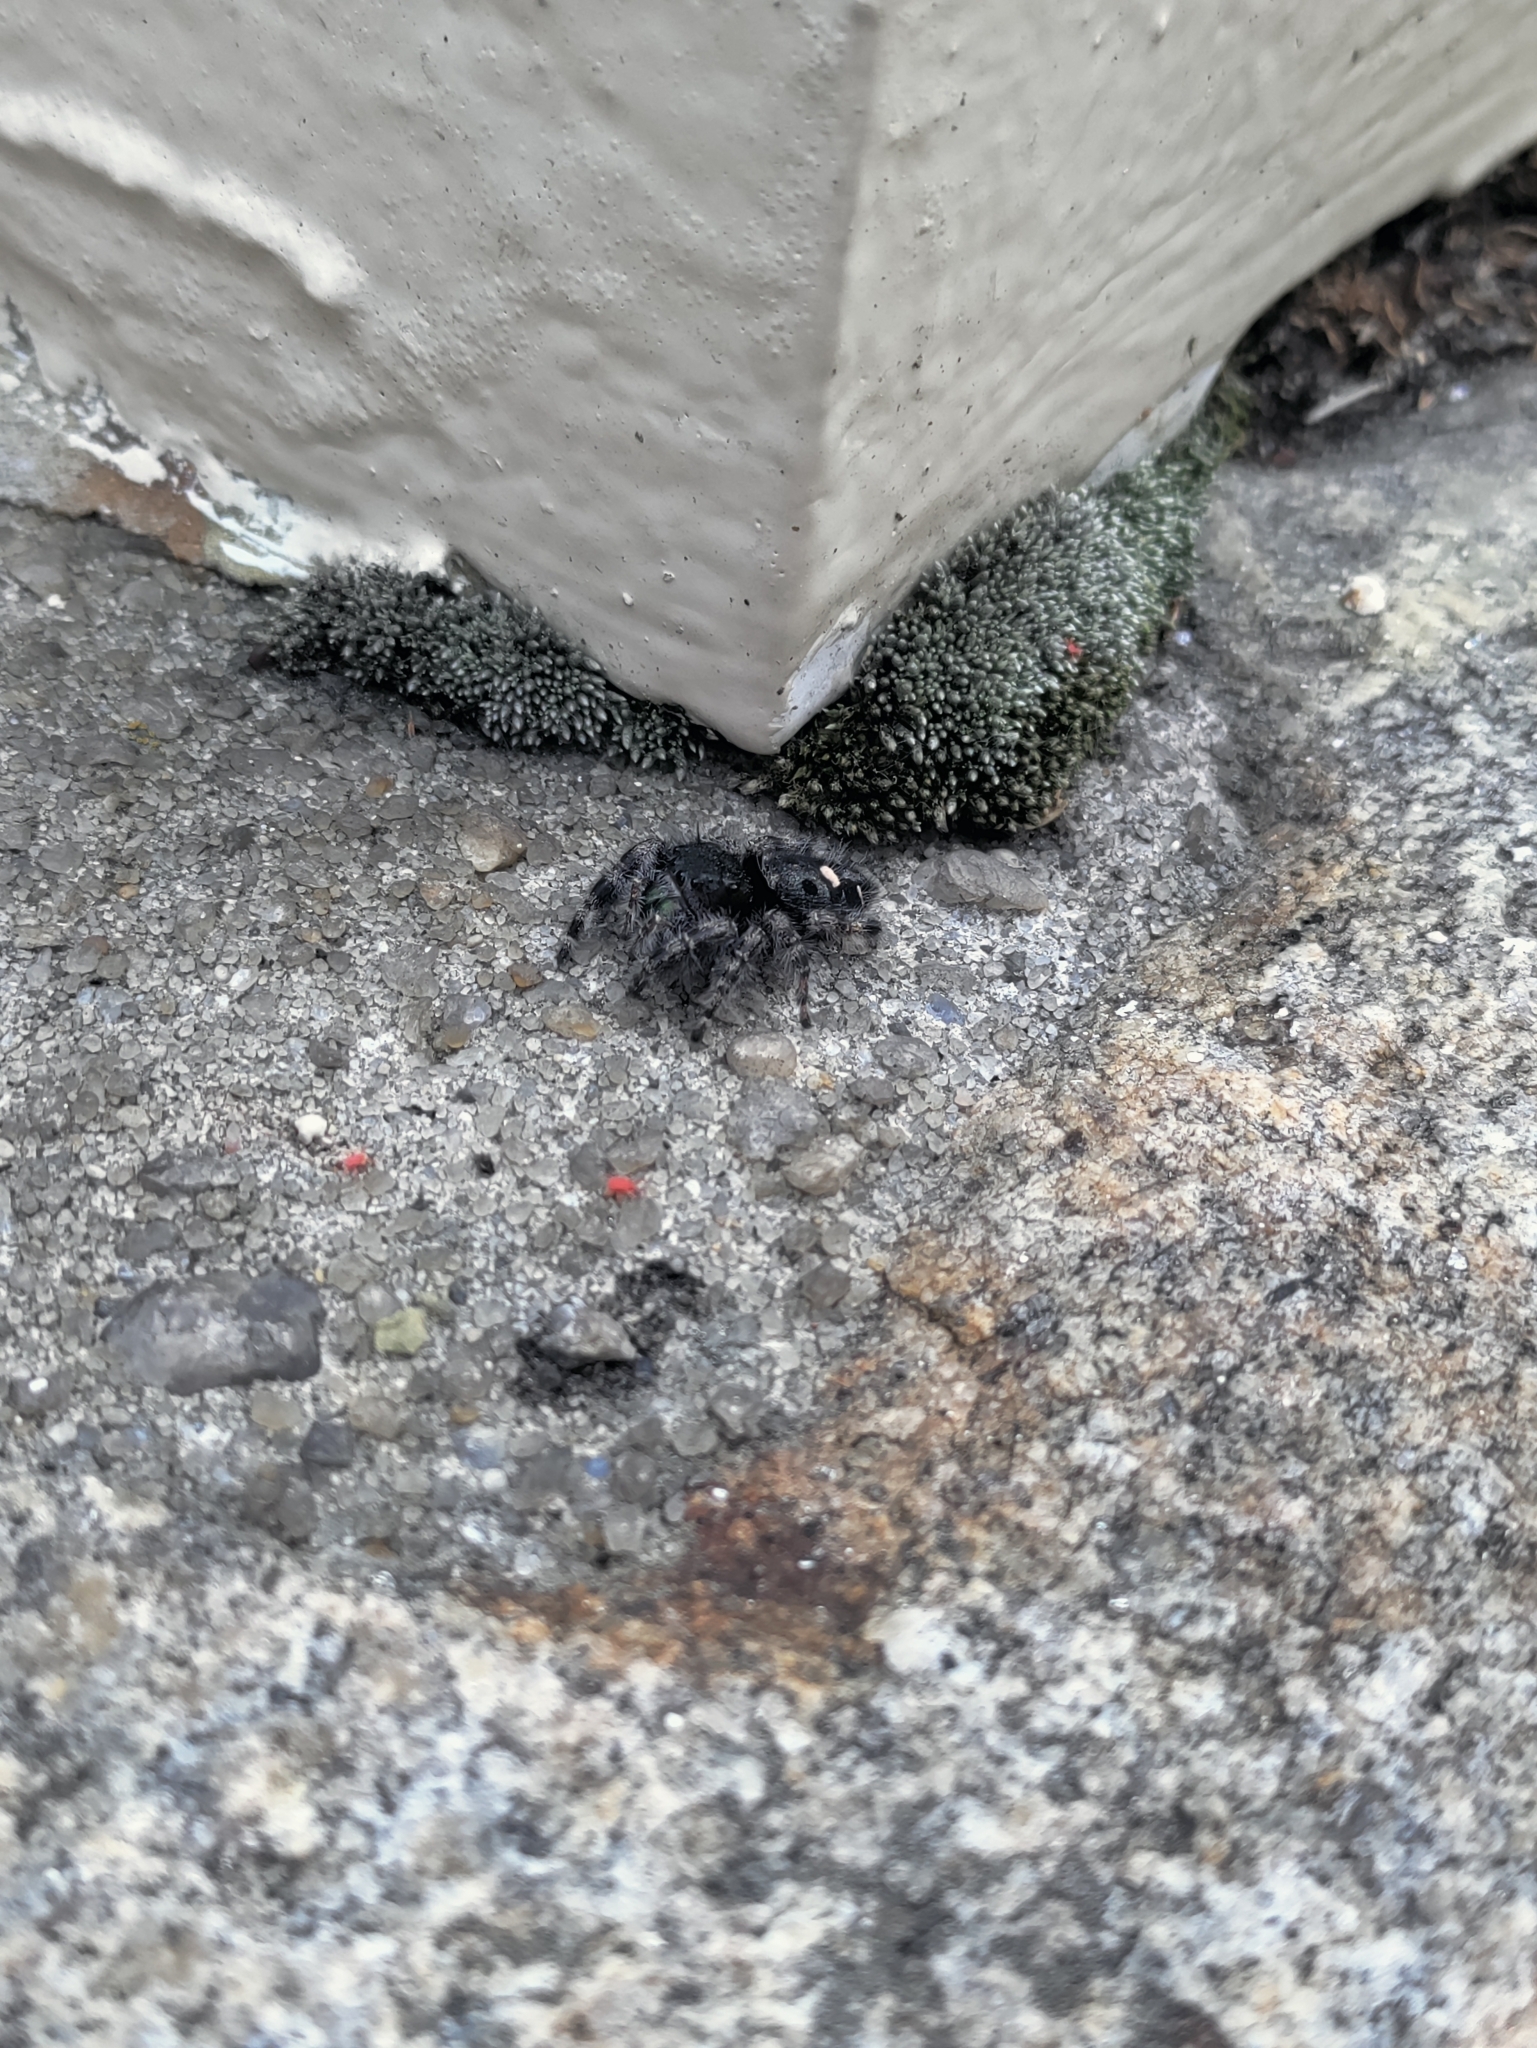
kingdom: Animalia
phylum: Arthropoda
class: Arachnida
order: Araneae
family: Salticidae
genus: Phidippus
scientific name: Phidippus audax
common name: Bold jumper
